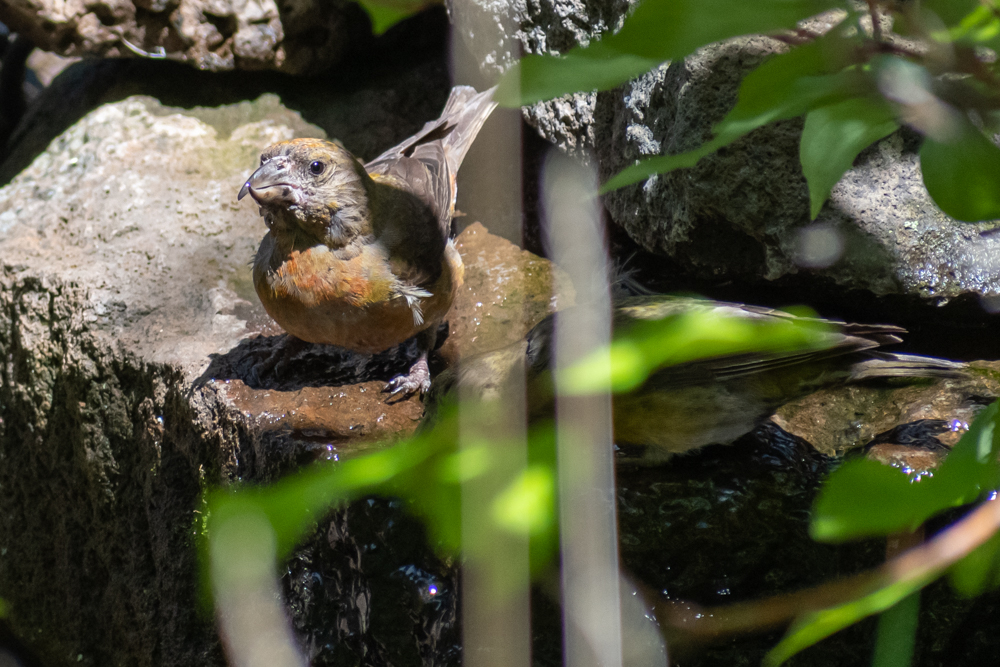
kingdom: Animalia
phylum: Chordata
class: Aves
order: Passeriformes
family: Fringillidae
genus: Loxia
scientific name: Loxia curvirostra
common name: Red crossbill
